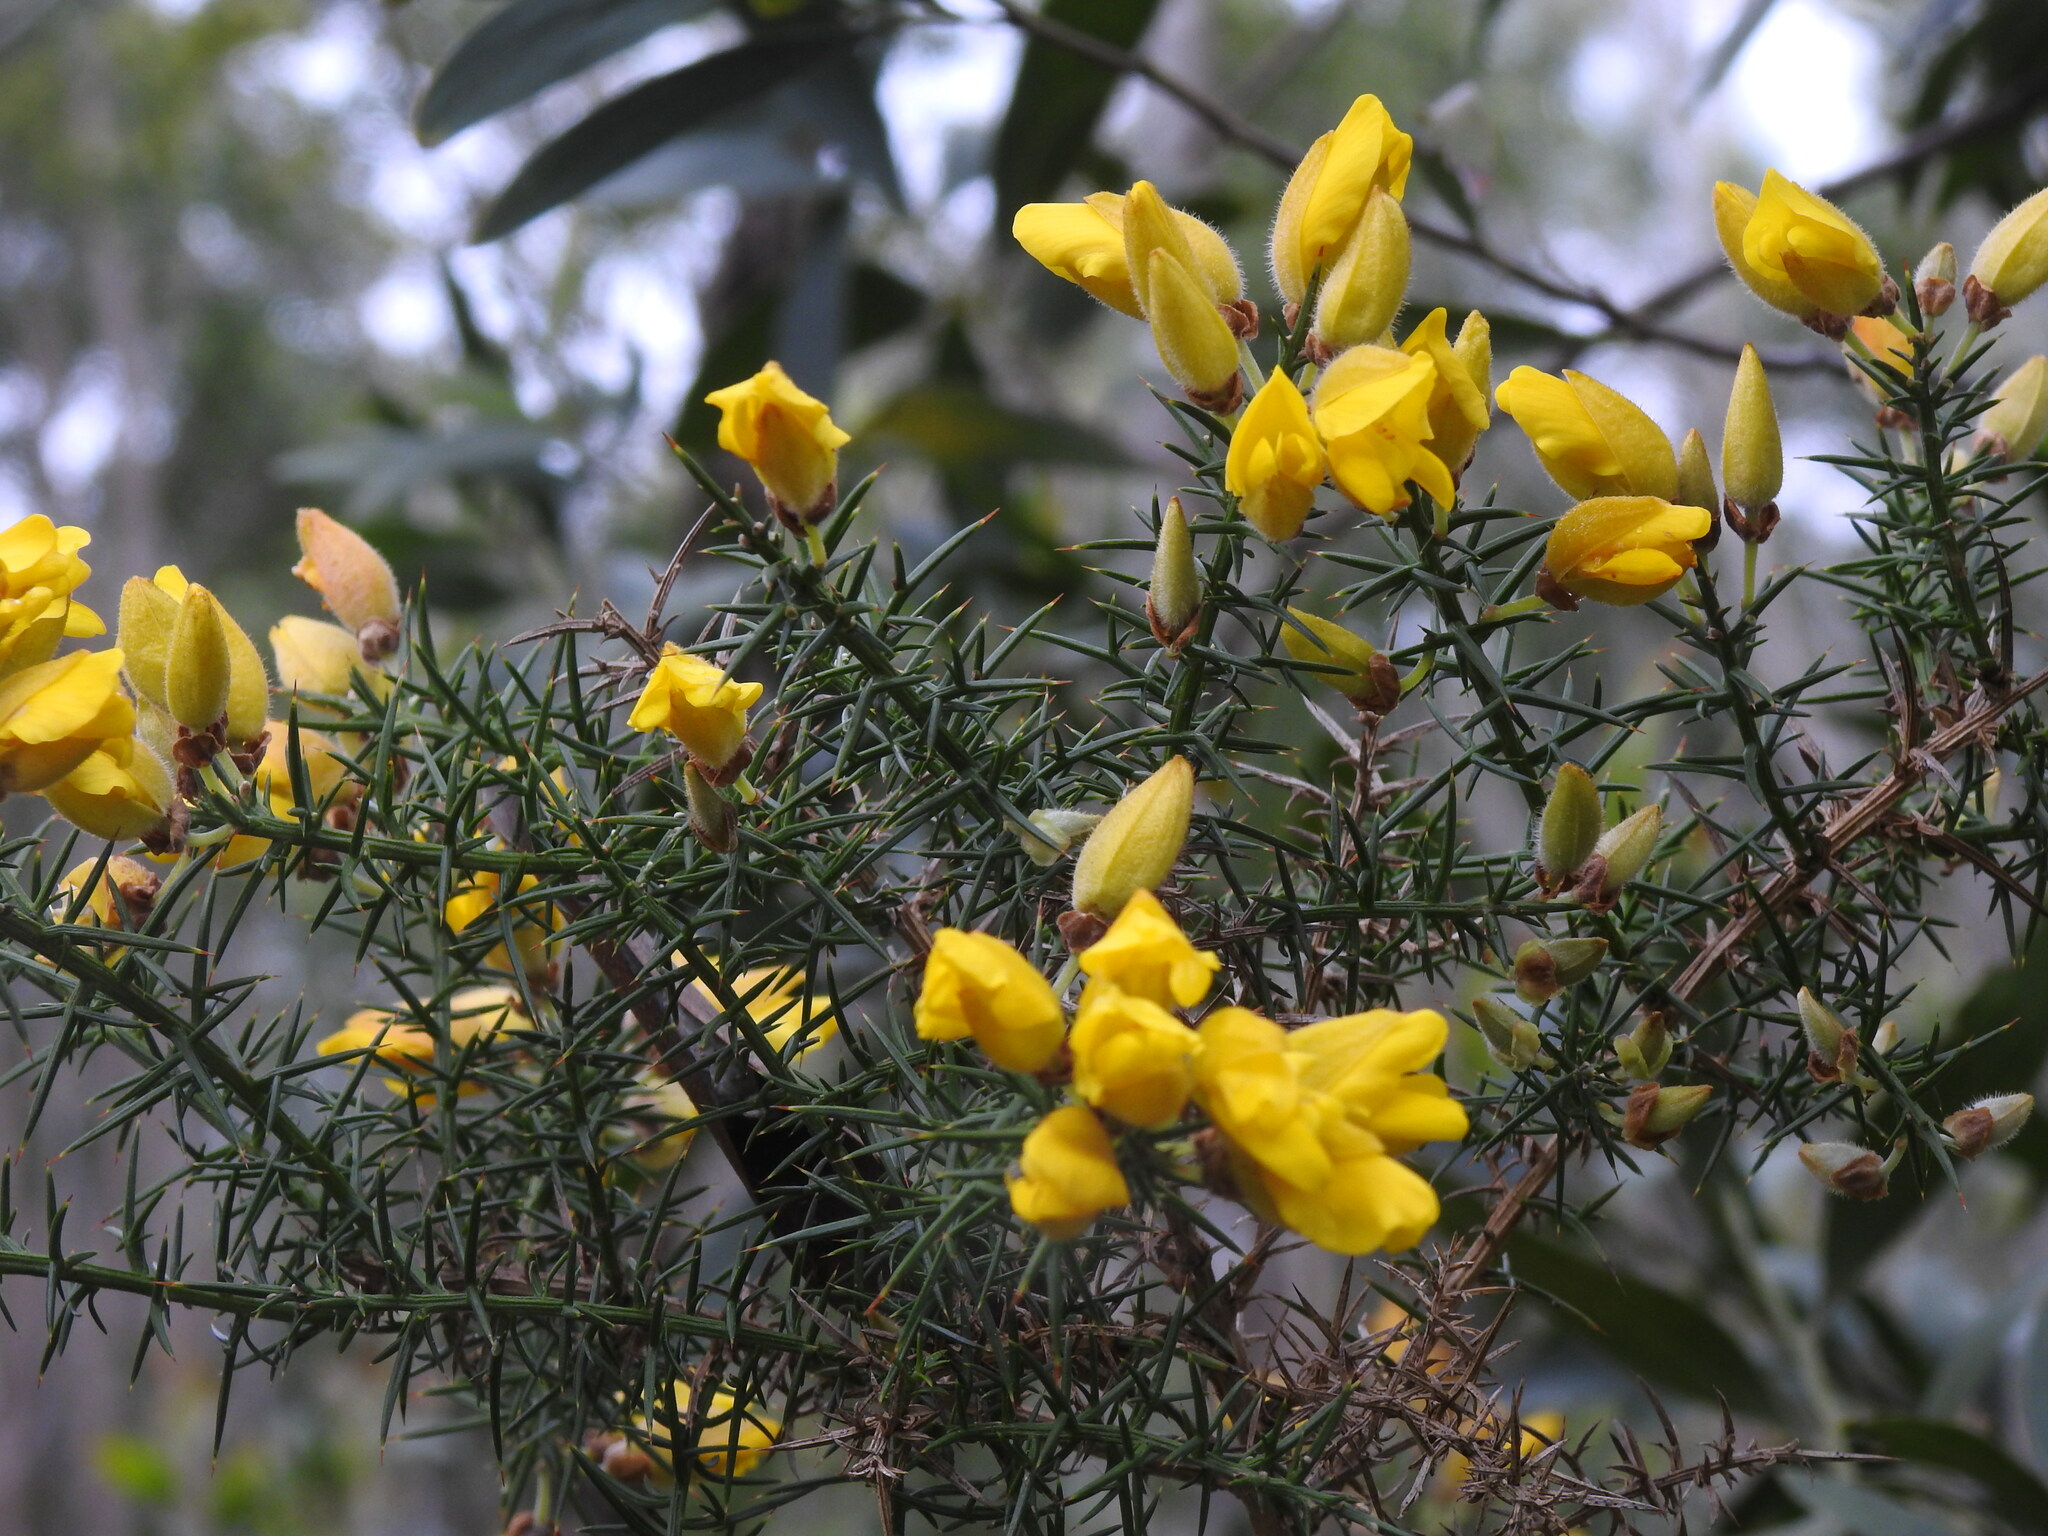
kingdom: Plantae
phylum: Tracheophyta
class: Magnoliopsida
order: Fabales
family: Fabaceae
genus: Ulex
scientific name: Ulex europaeus
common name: Common gorse
